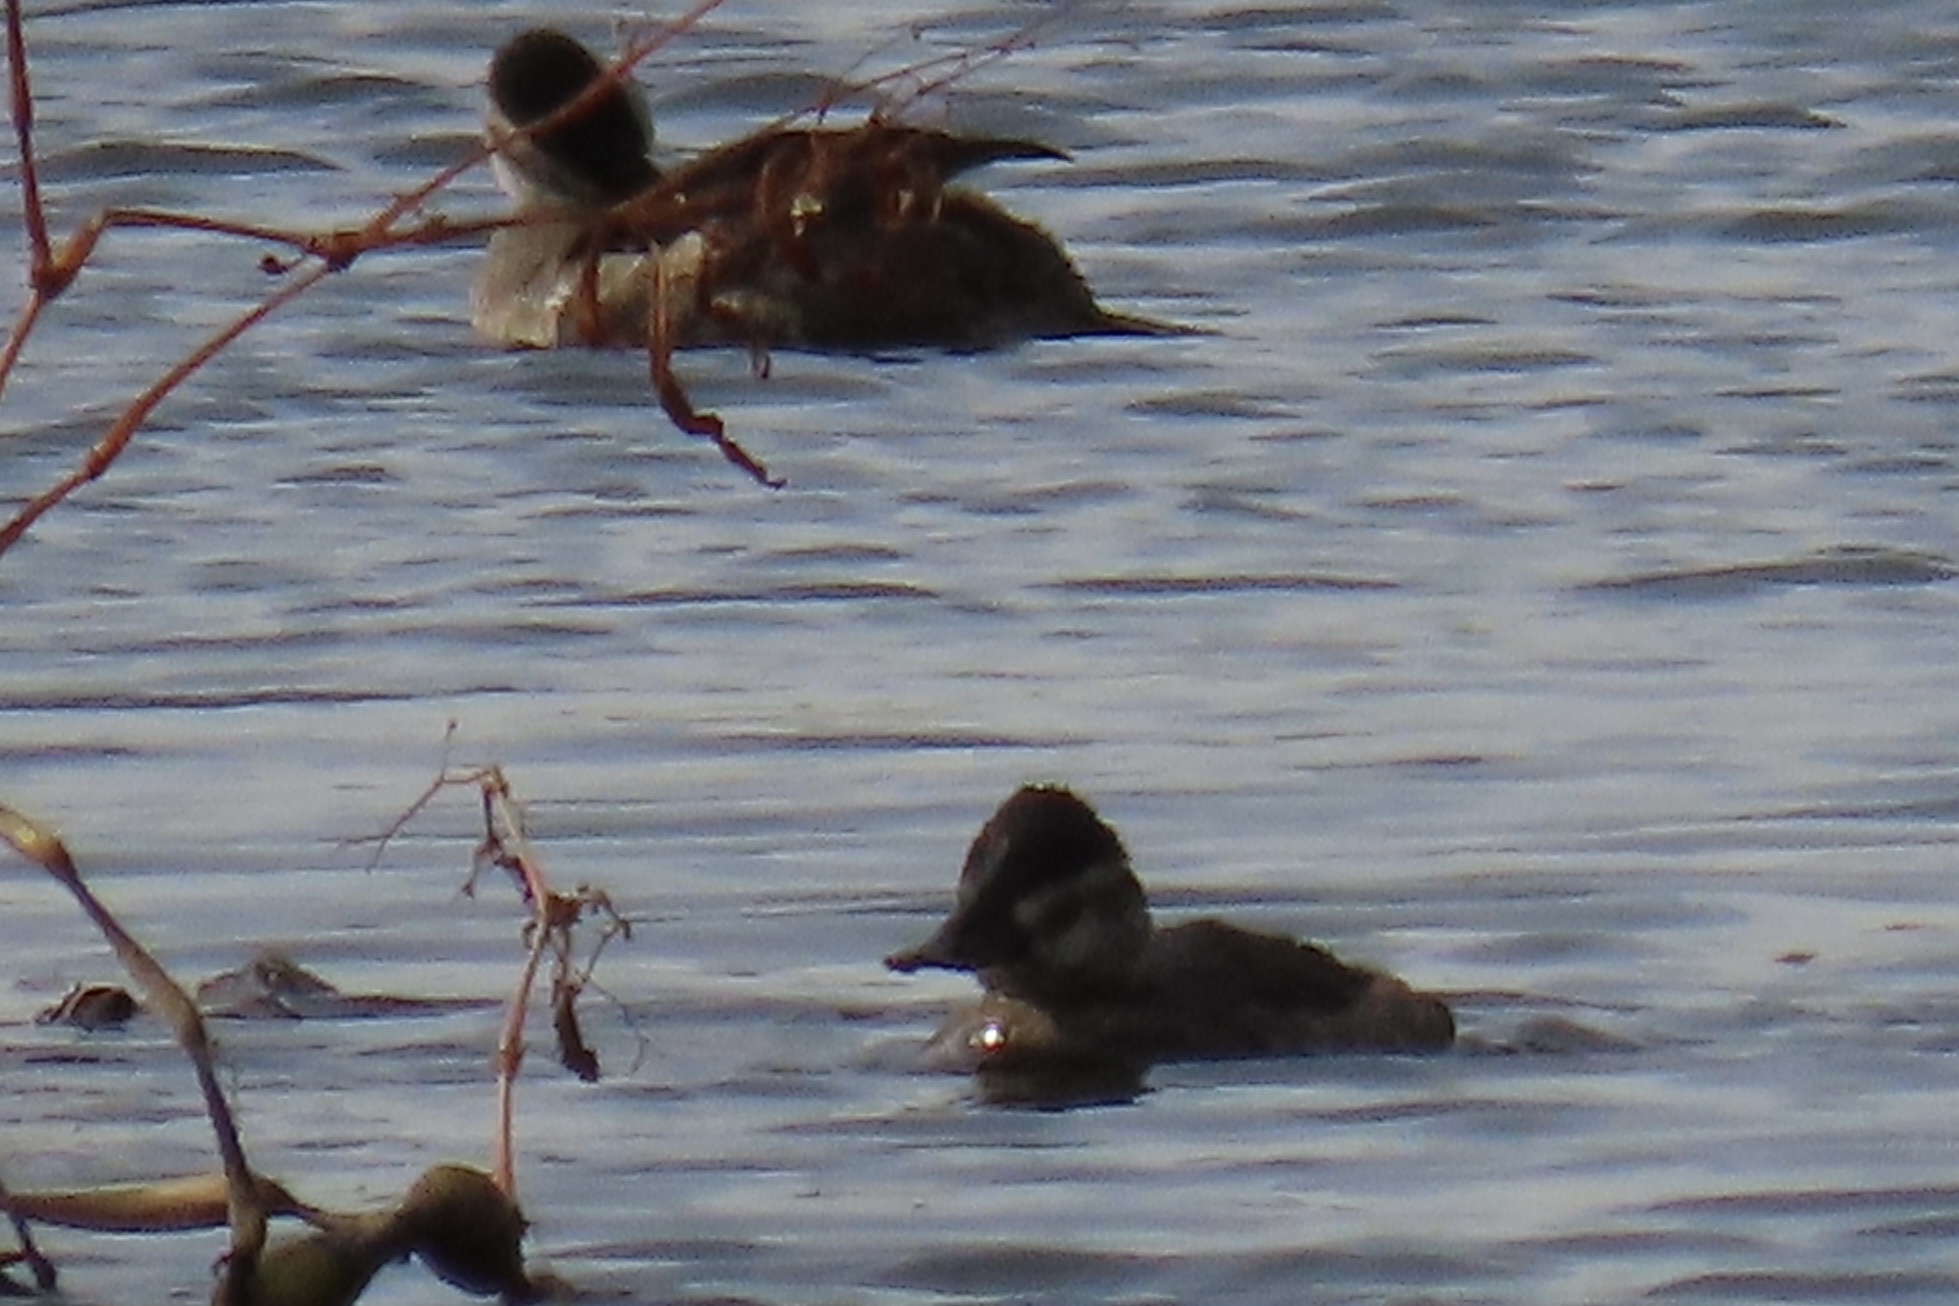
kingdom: Animalia
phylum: Chordata
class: Aves
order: Anseriformes
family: Anatidae
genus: Oxyura
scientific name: Oxyura jamaicensis
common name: Ruddy duck
